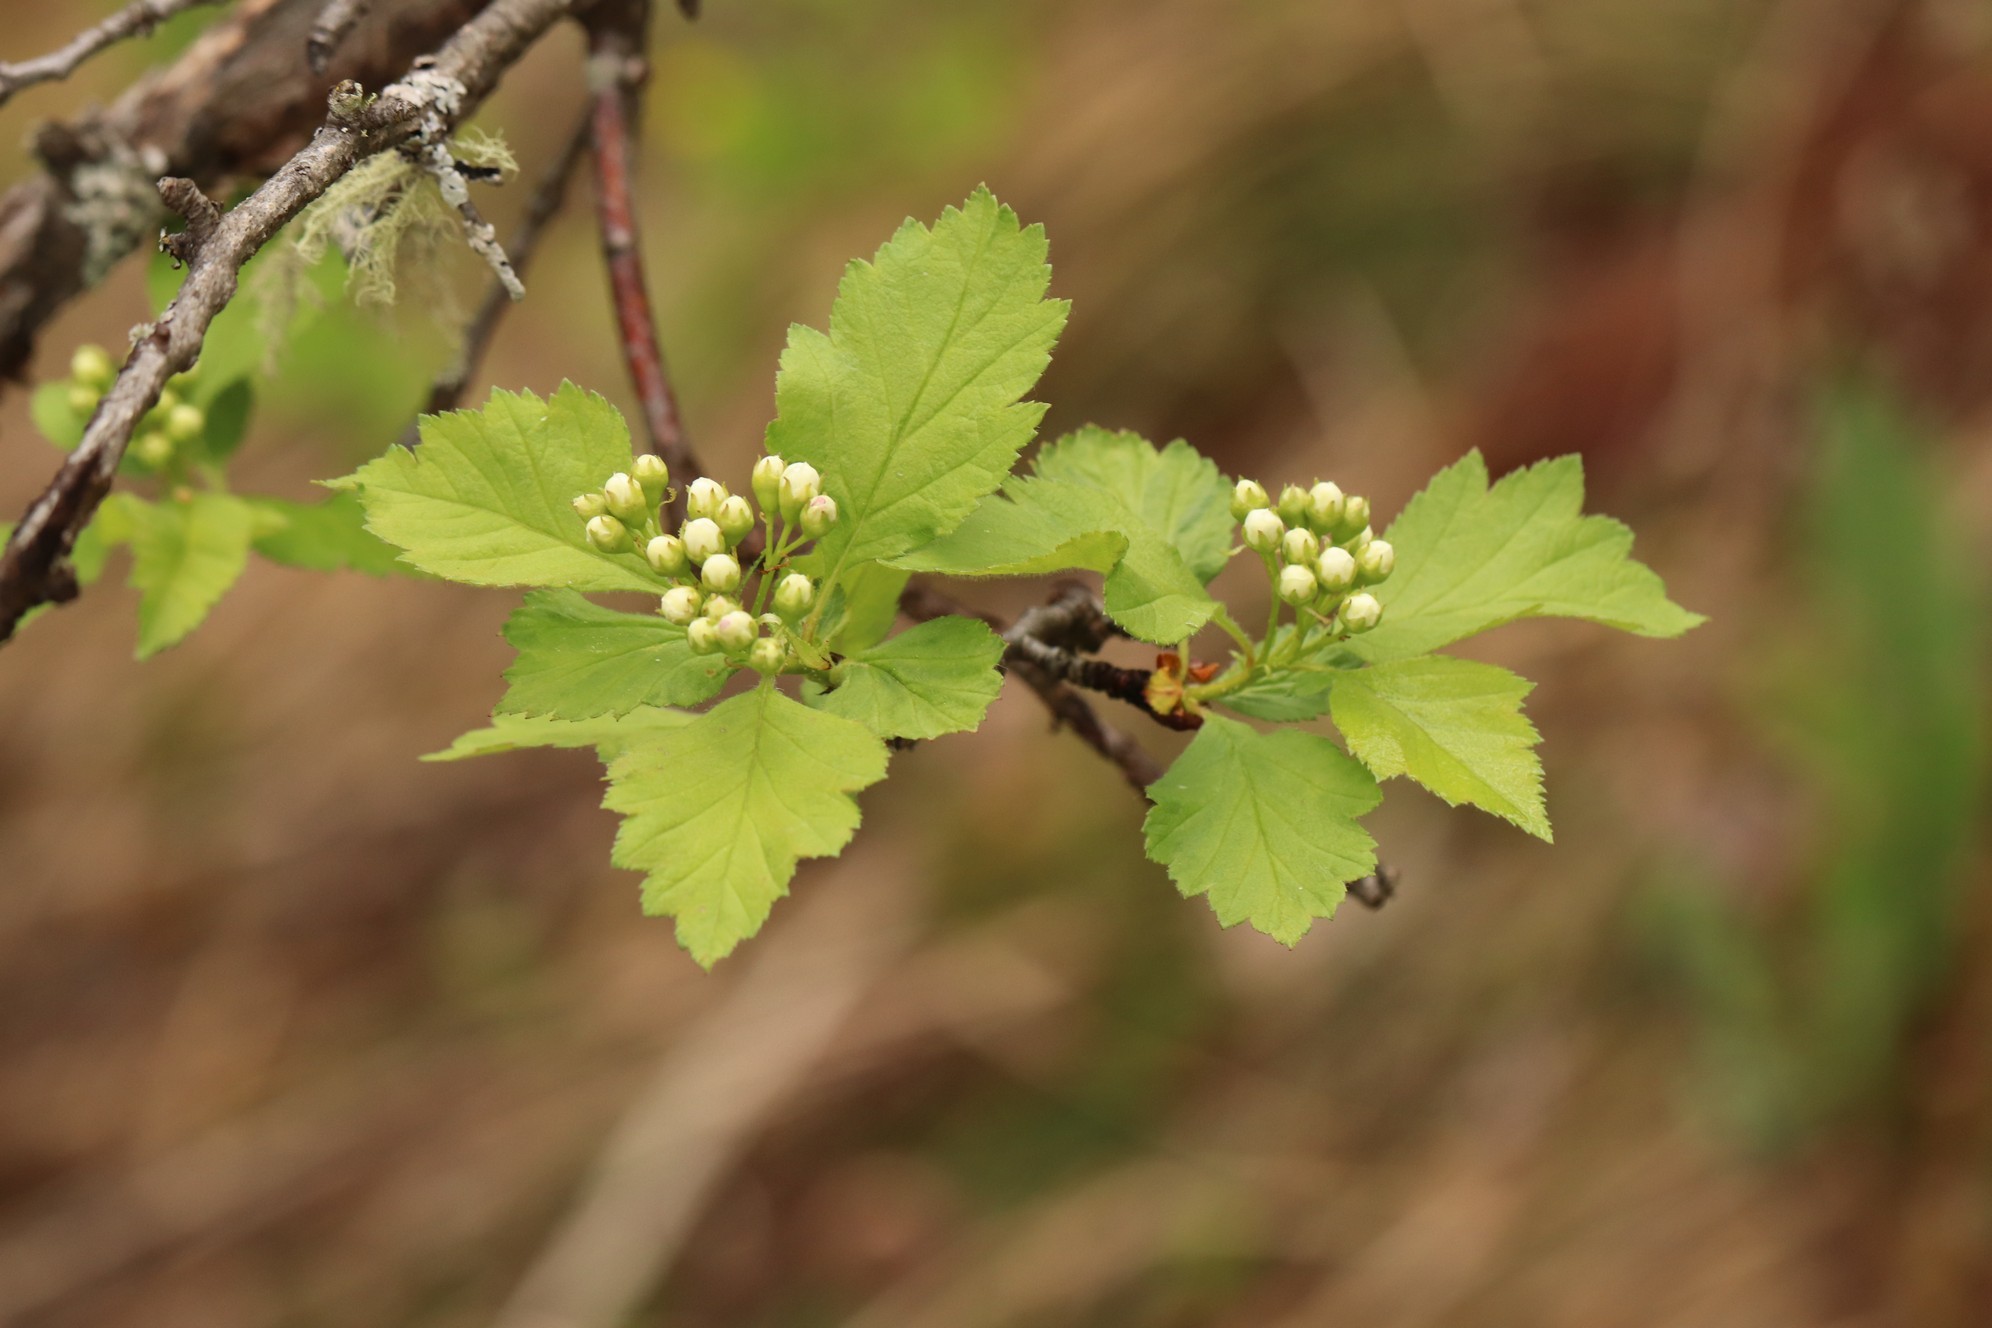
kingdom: Plantae
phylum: Tracheophyta
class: Magnoliopsida
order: Rosales
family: Rosaceae
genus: Crataegus
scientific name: Crataegus sanguinea
